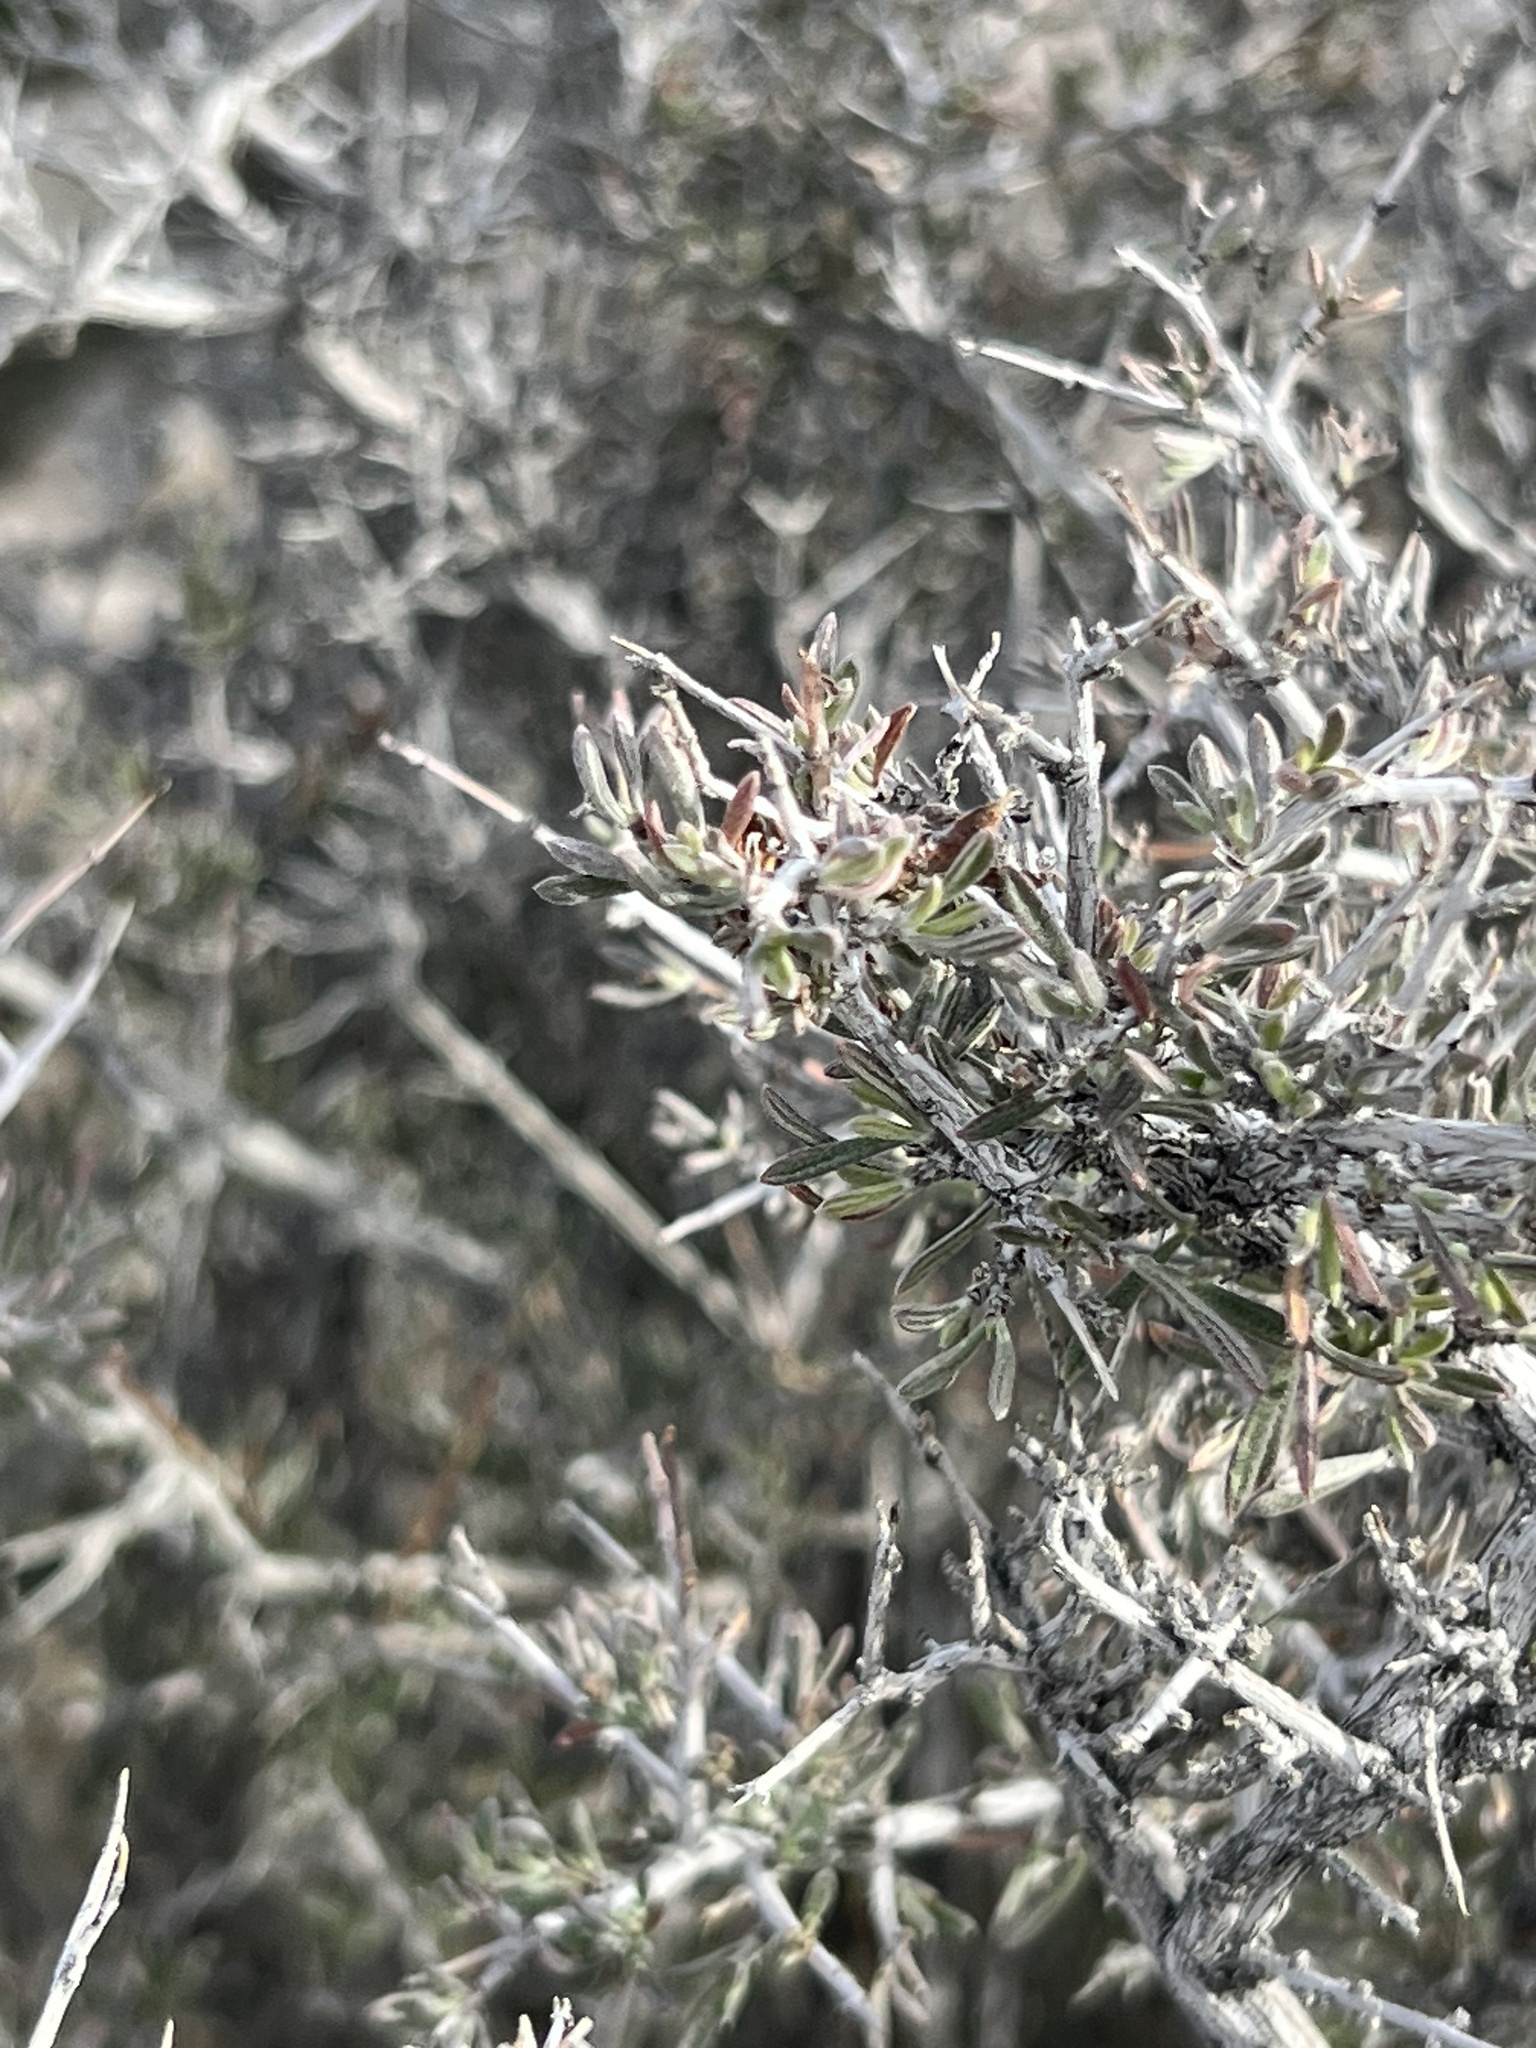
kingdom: Plantae
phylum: Tracheophyta
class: Magnoliopsida
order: Rosales
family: Rosaceae
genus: Coleogyne
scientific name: Coleogyne ramosissima
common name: Blackbrush
